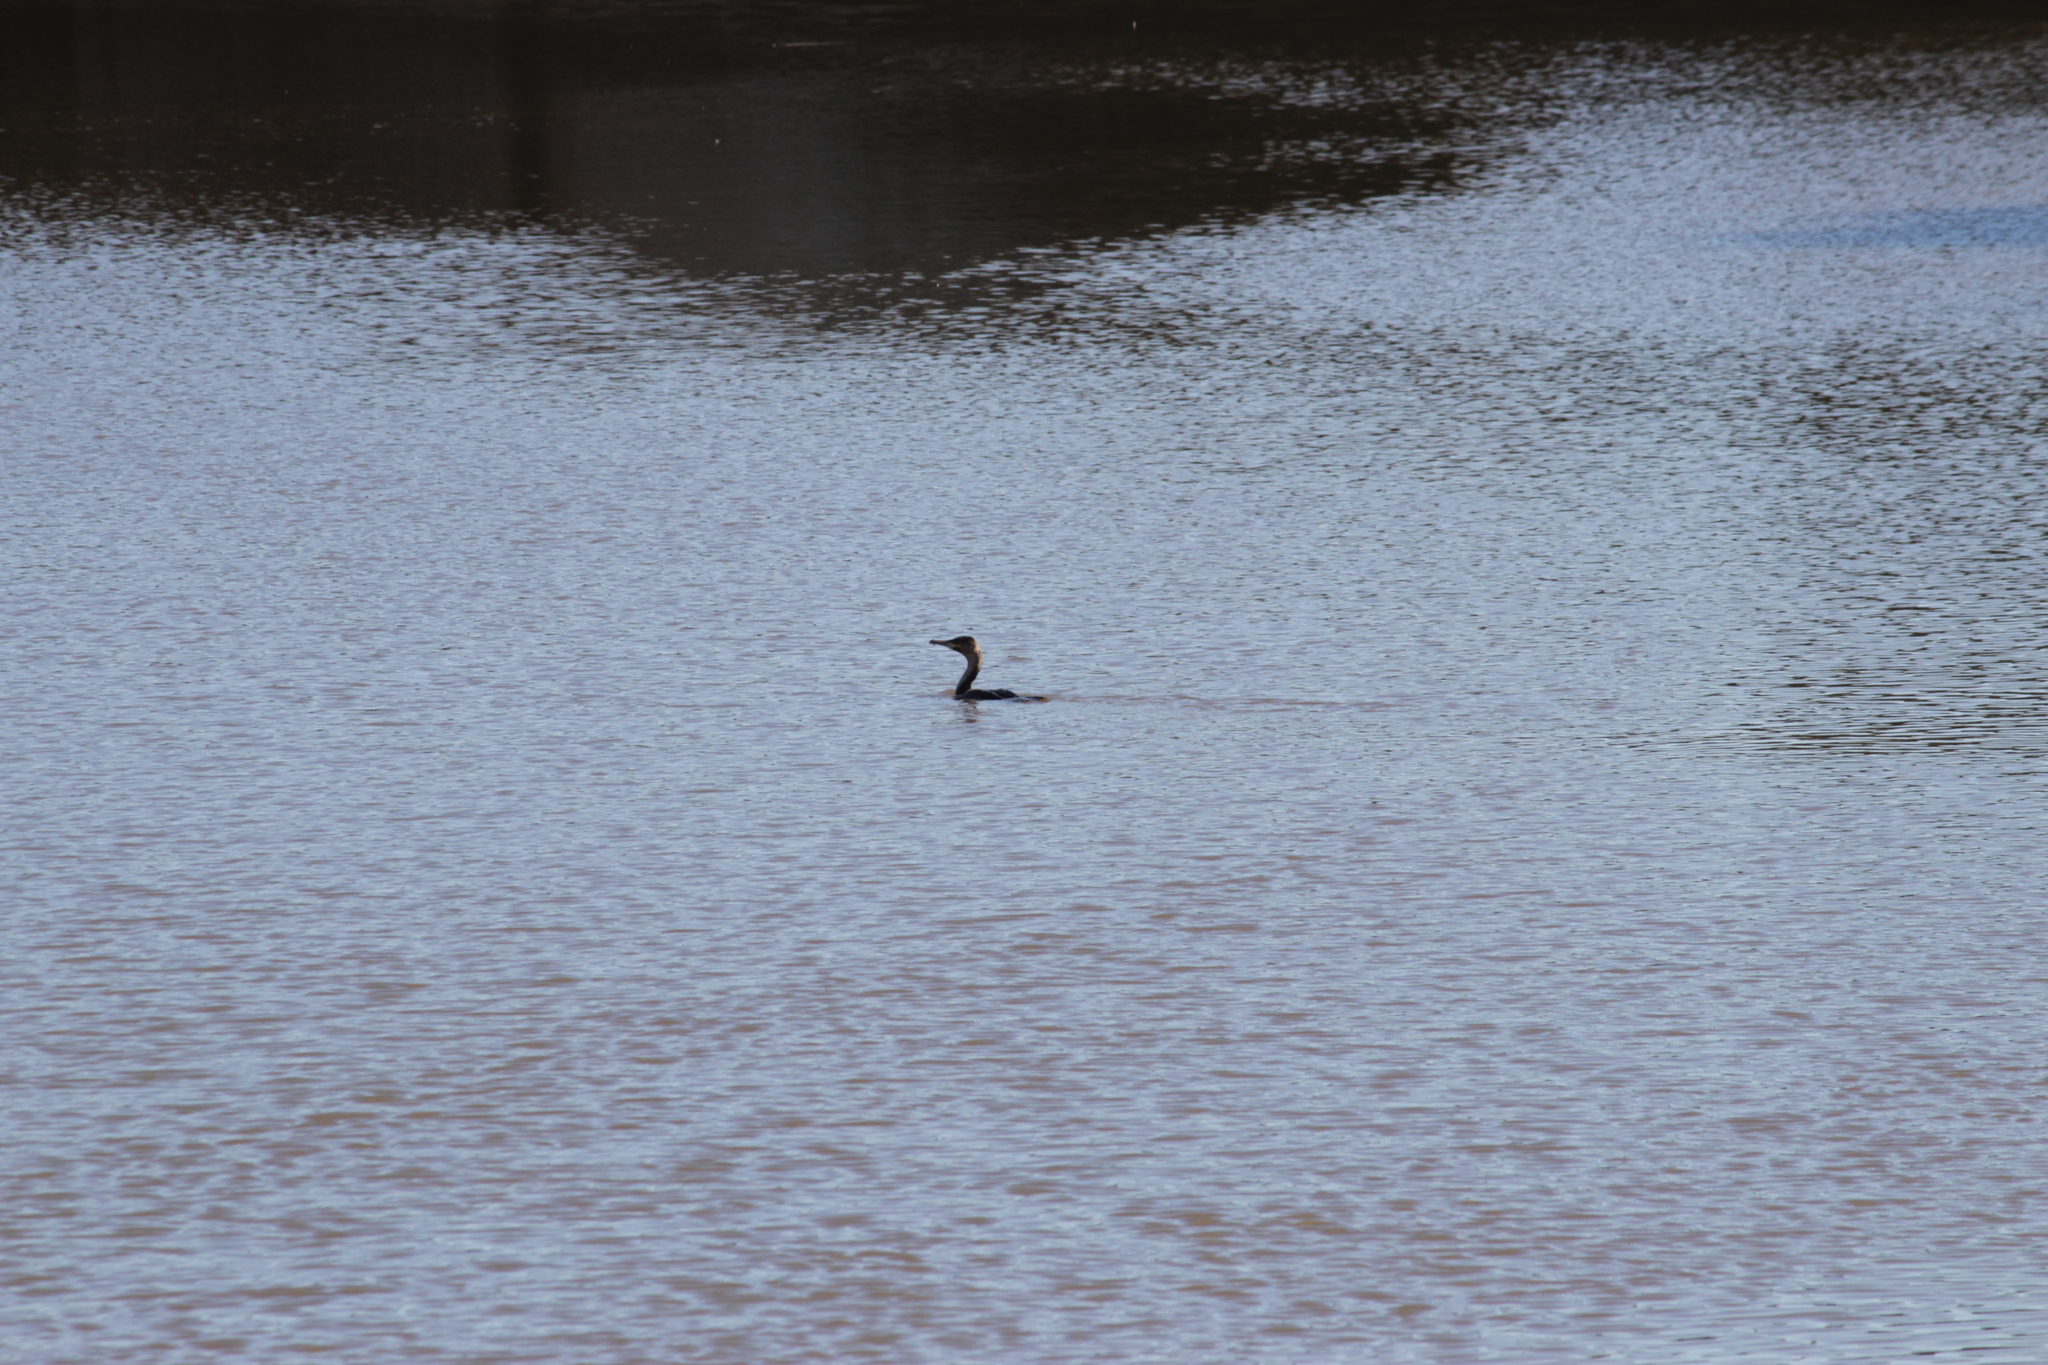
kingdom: Animalia
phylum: Chordata
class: Aves
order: Suliformes
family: Phalacrocoracidae
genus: Phalacrocorax
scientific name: Phalacrocorax carbo
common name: Great cormorant
